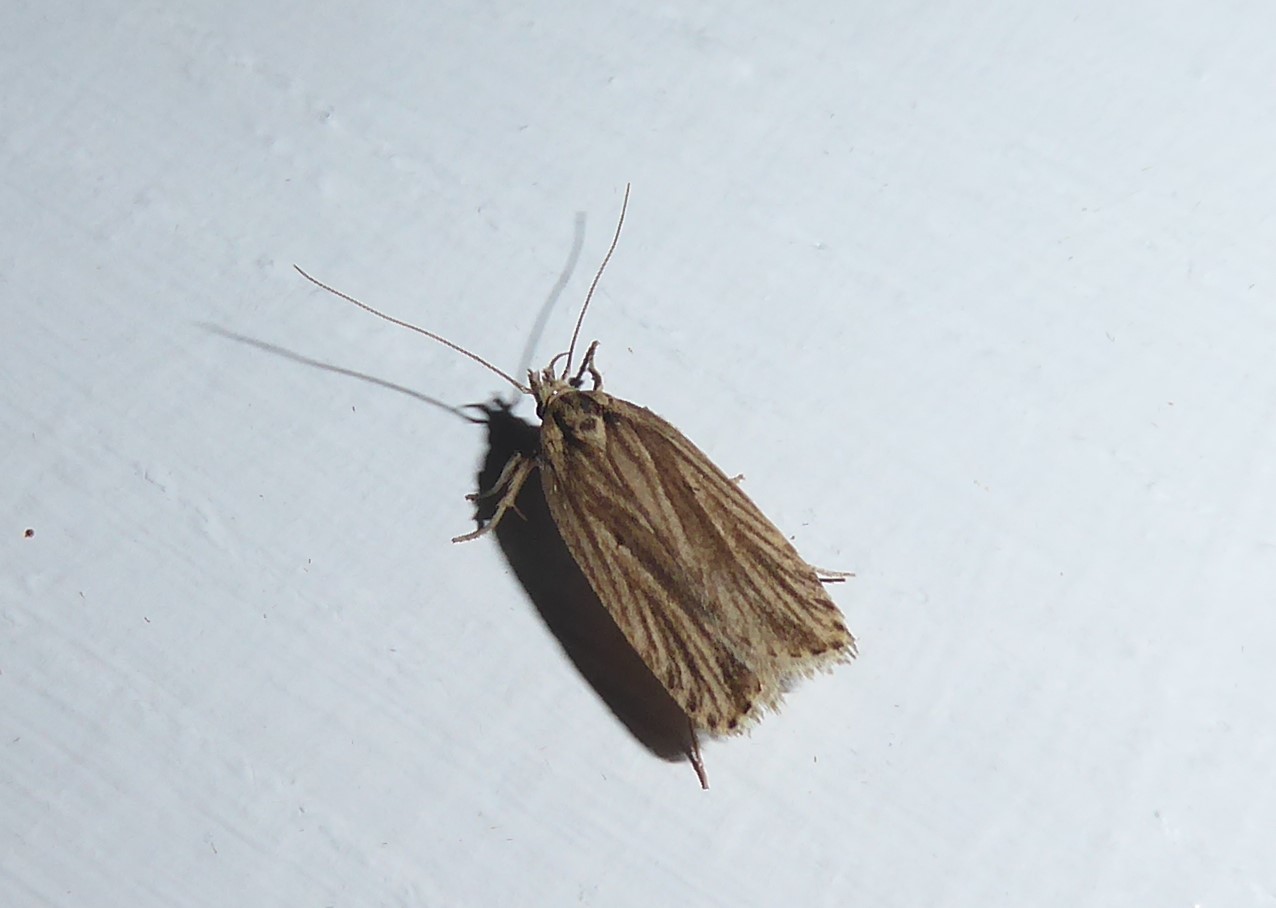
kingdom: Animalia
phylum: Arthropoda
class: Insecta
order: Lepidoptera
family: Depressariidae
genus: Agonopterix
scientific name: Agonopterix
